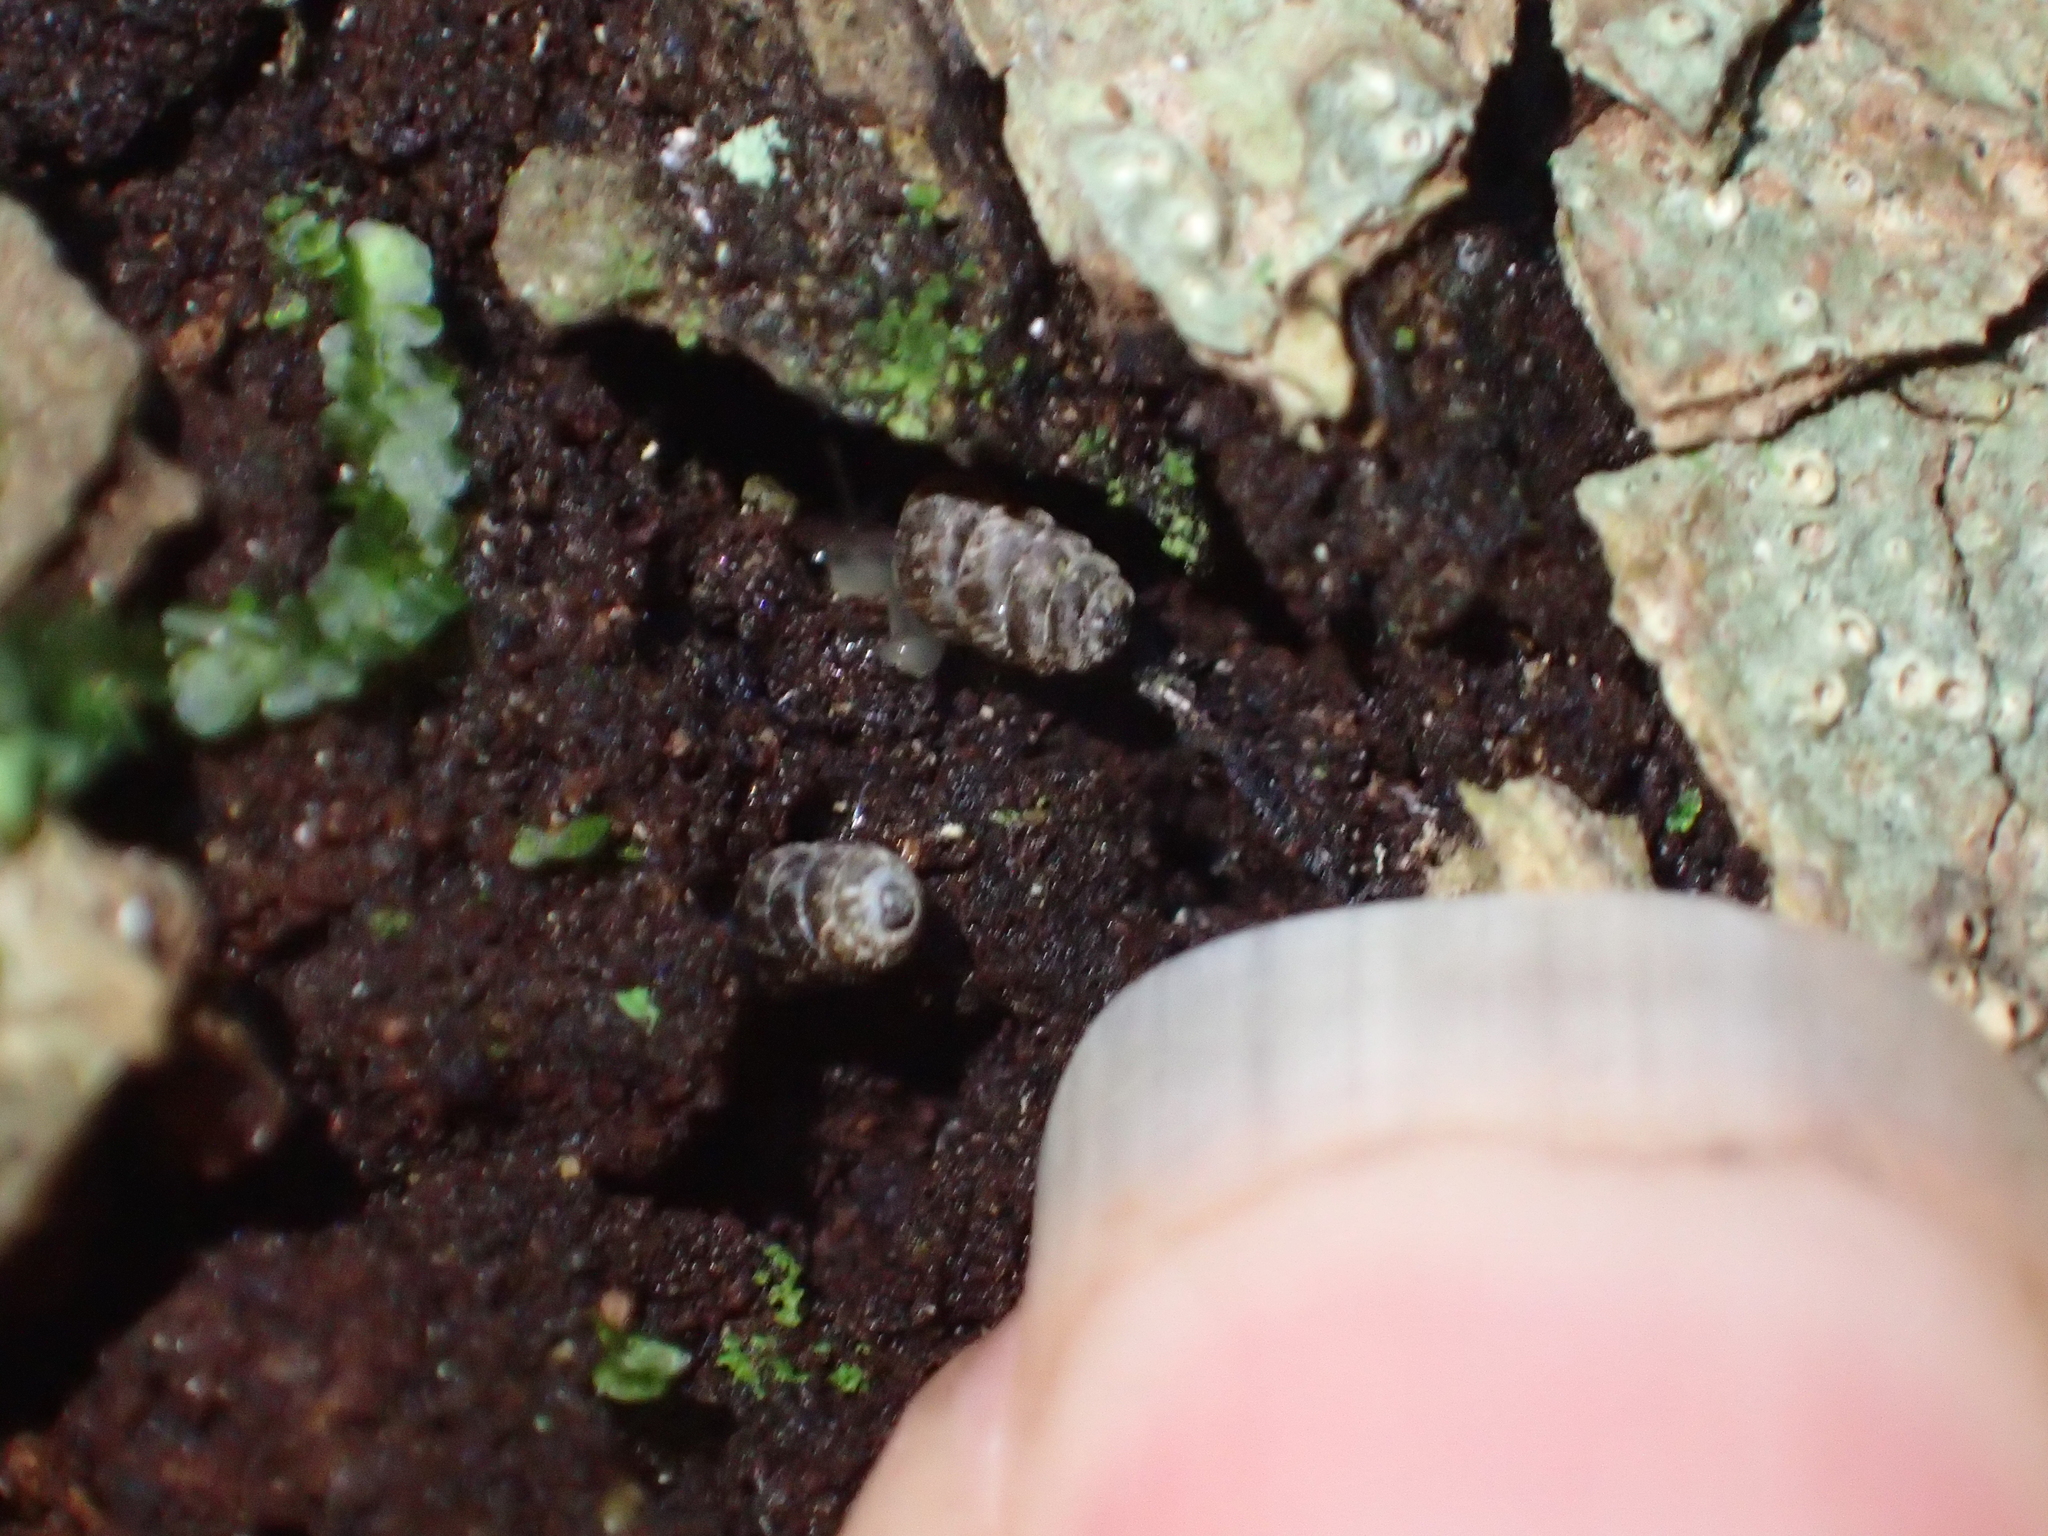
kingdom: Animalia
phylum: Mollusca
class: Gastropoda
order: Stylommatophora
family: Charopidae
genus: Phenacharopa
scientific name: Phenacharopa novoseelandica
